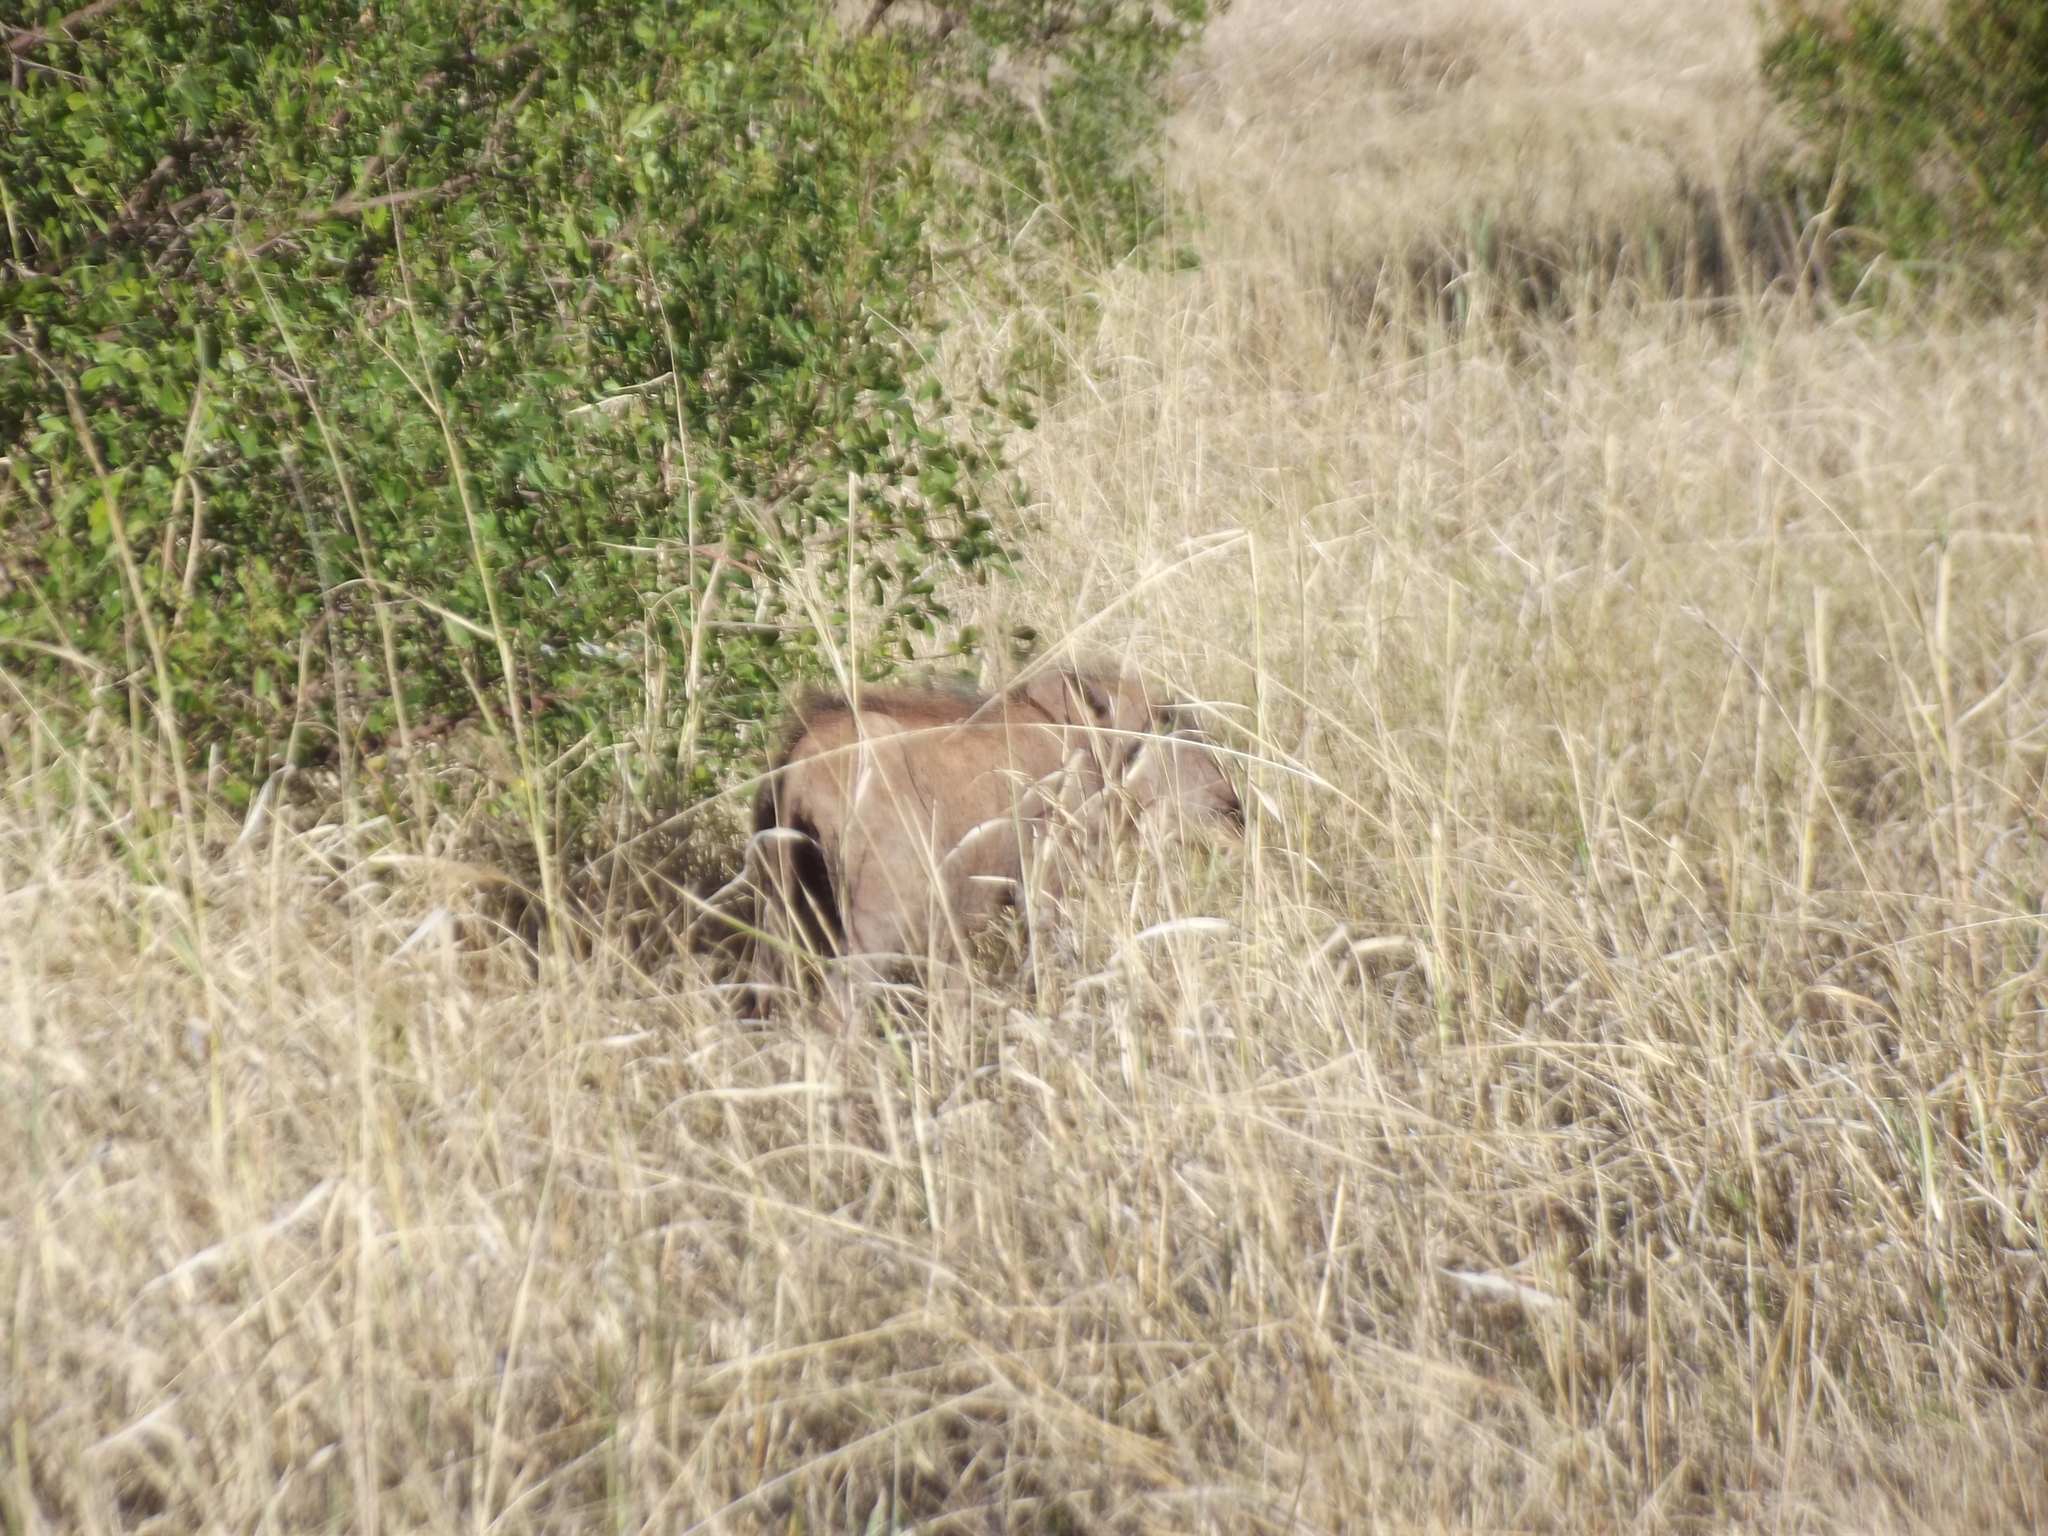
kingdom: Animalia
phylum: Chordata
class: Mammalia
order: Artiodactyla
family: Suidae
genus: Phacochoerus
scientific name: Phacochoerus africanus
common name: Common warthog
